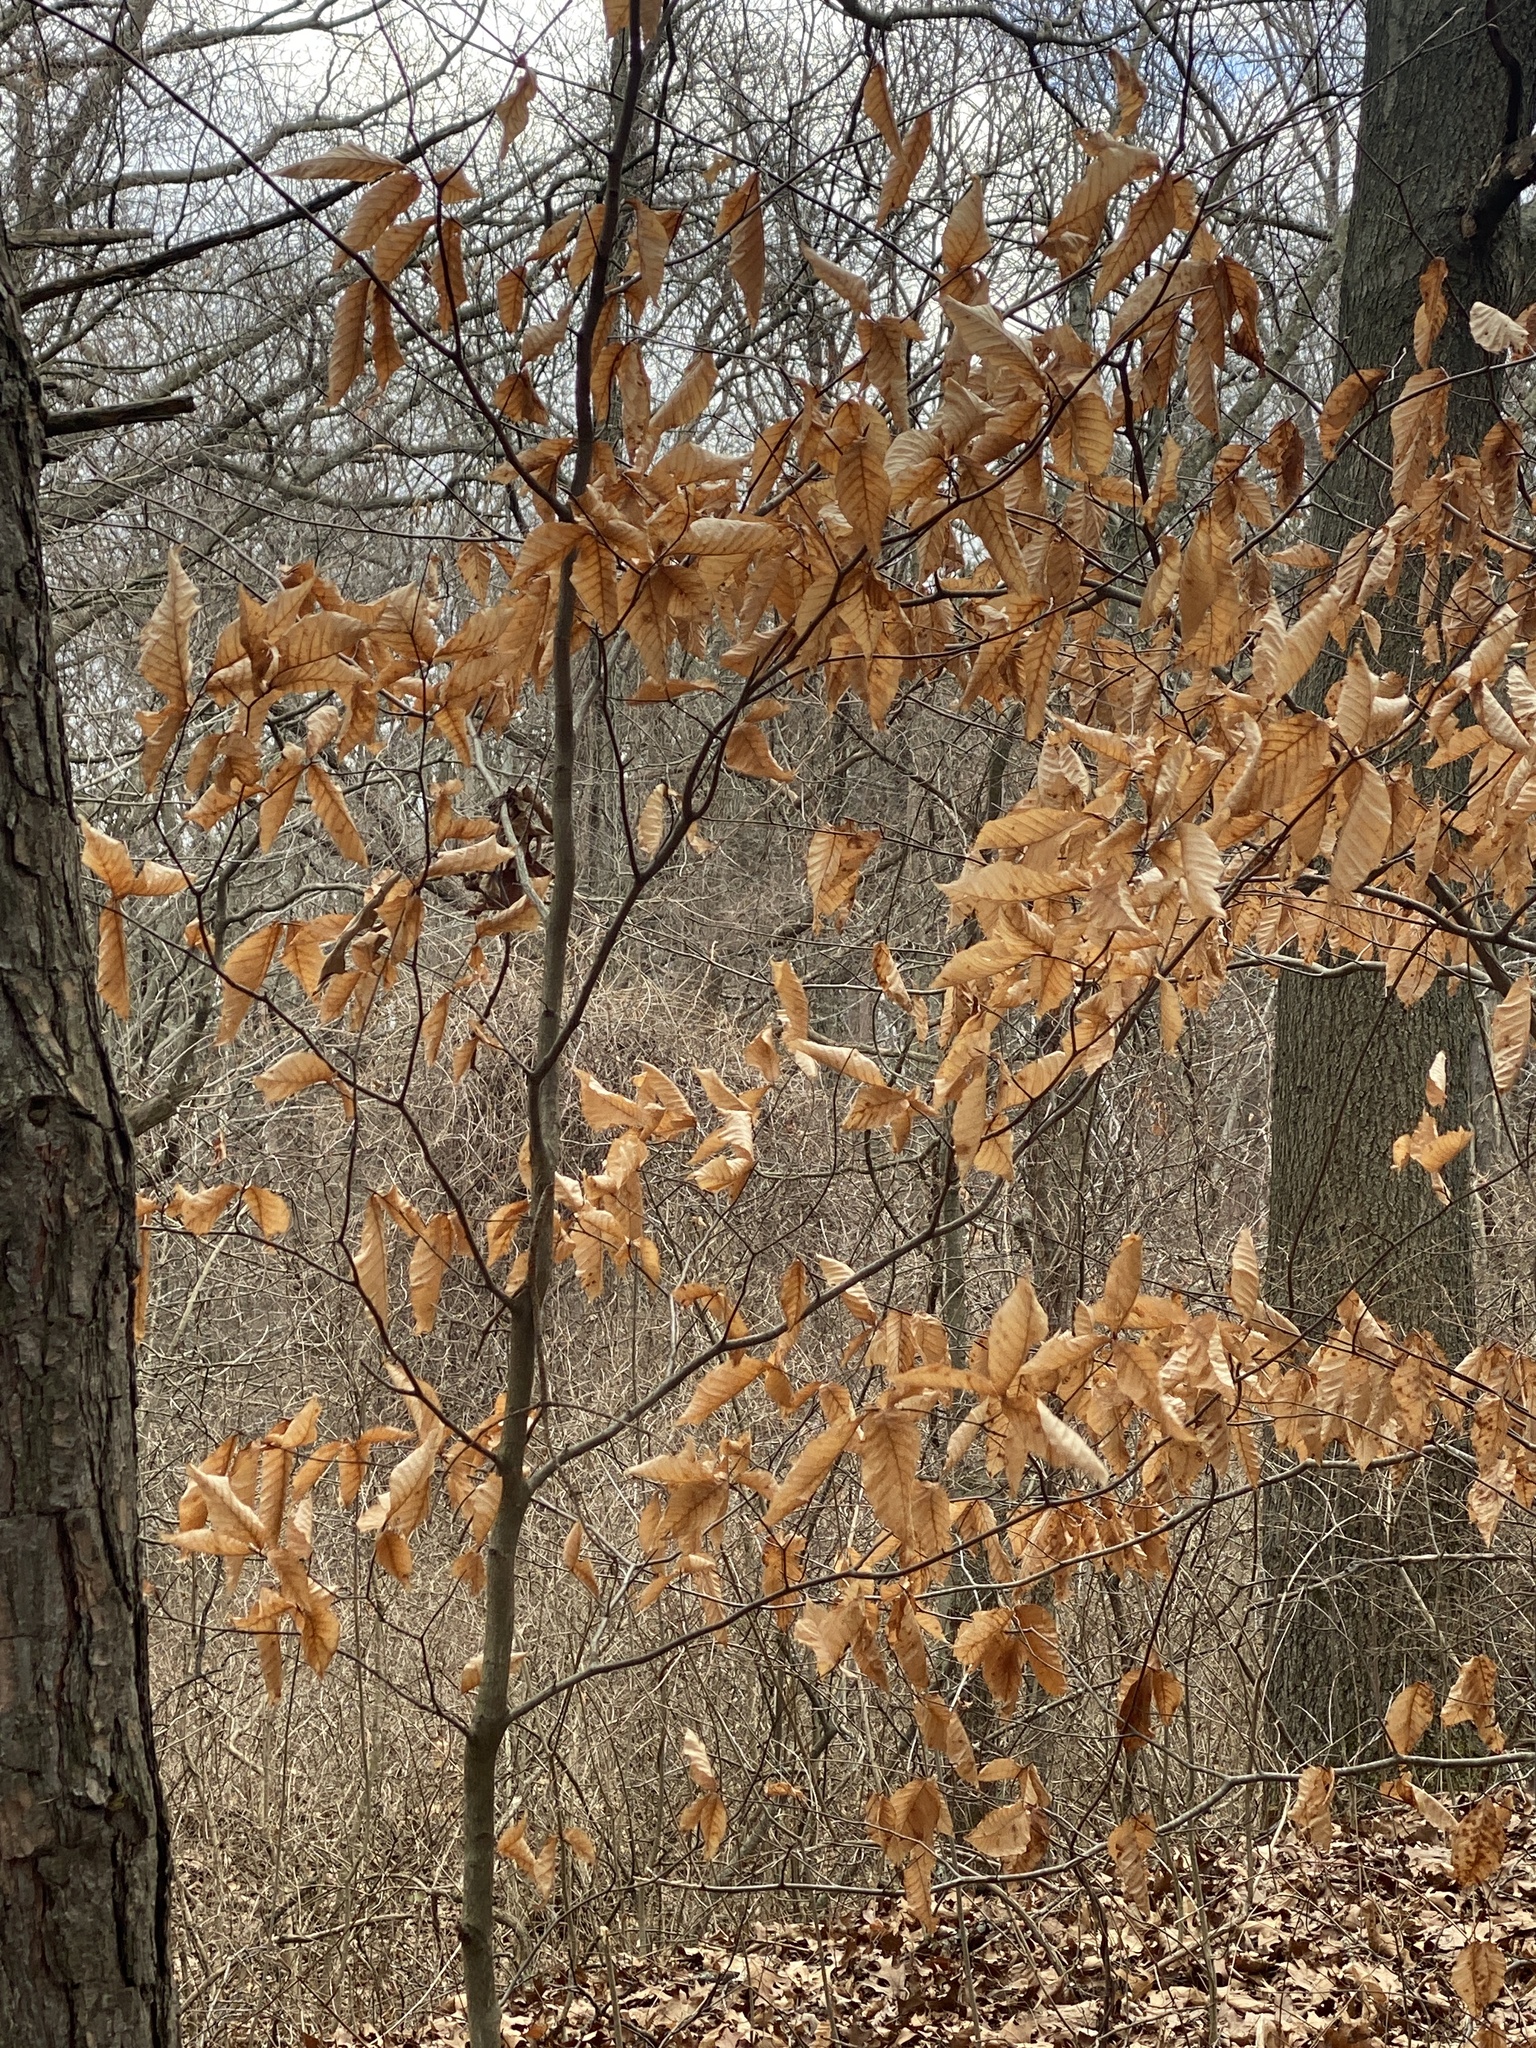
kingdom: Plantae
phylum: Tracheophyta
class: Magnoliopsida
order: Fagales
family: Fagaceae
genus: Fagus
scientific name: Fagus grandifolia
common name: American beech
